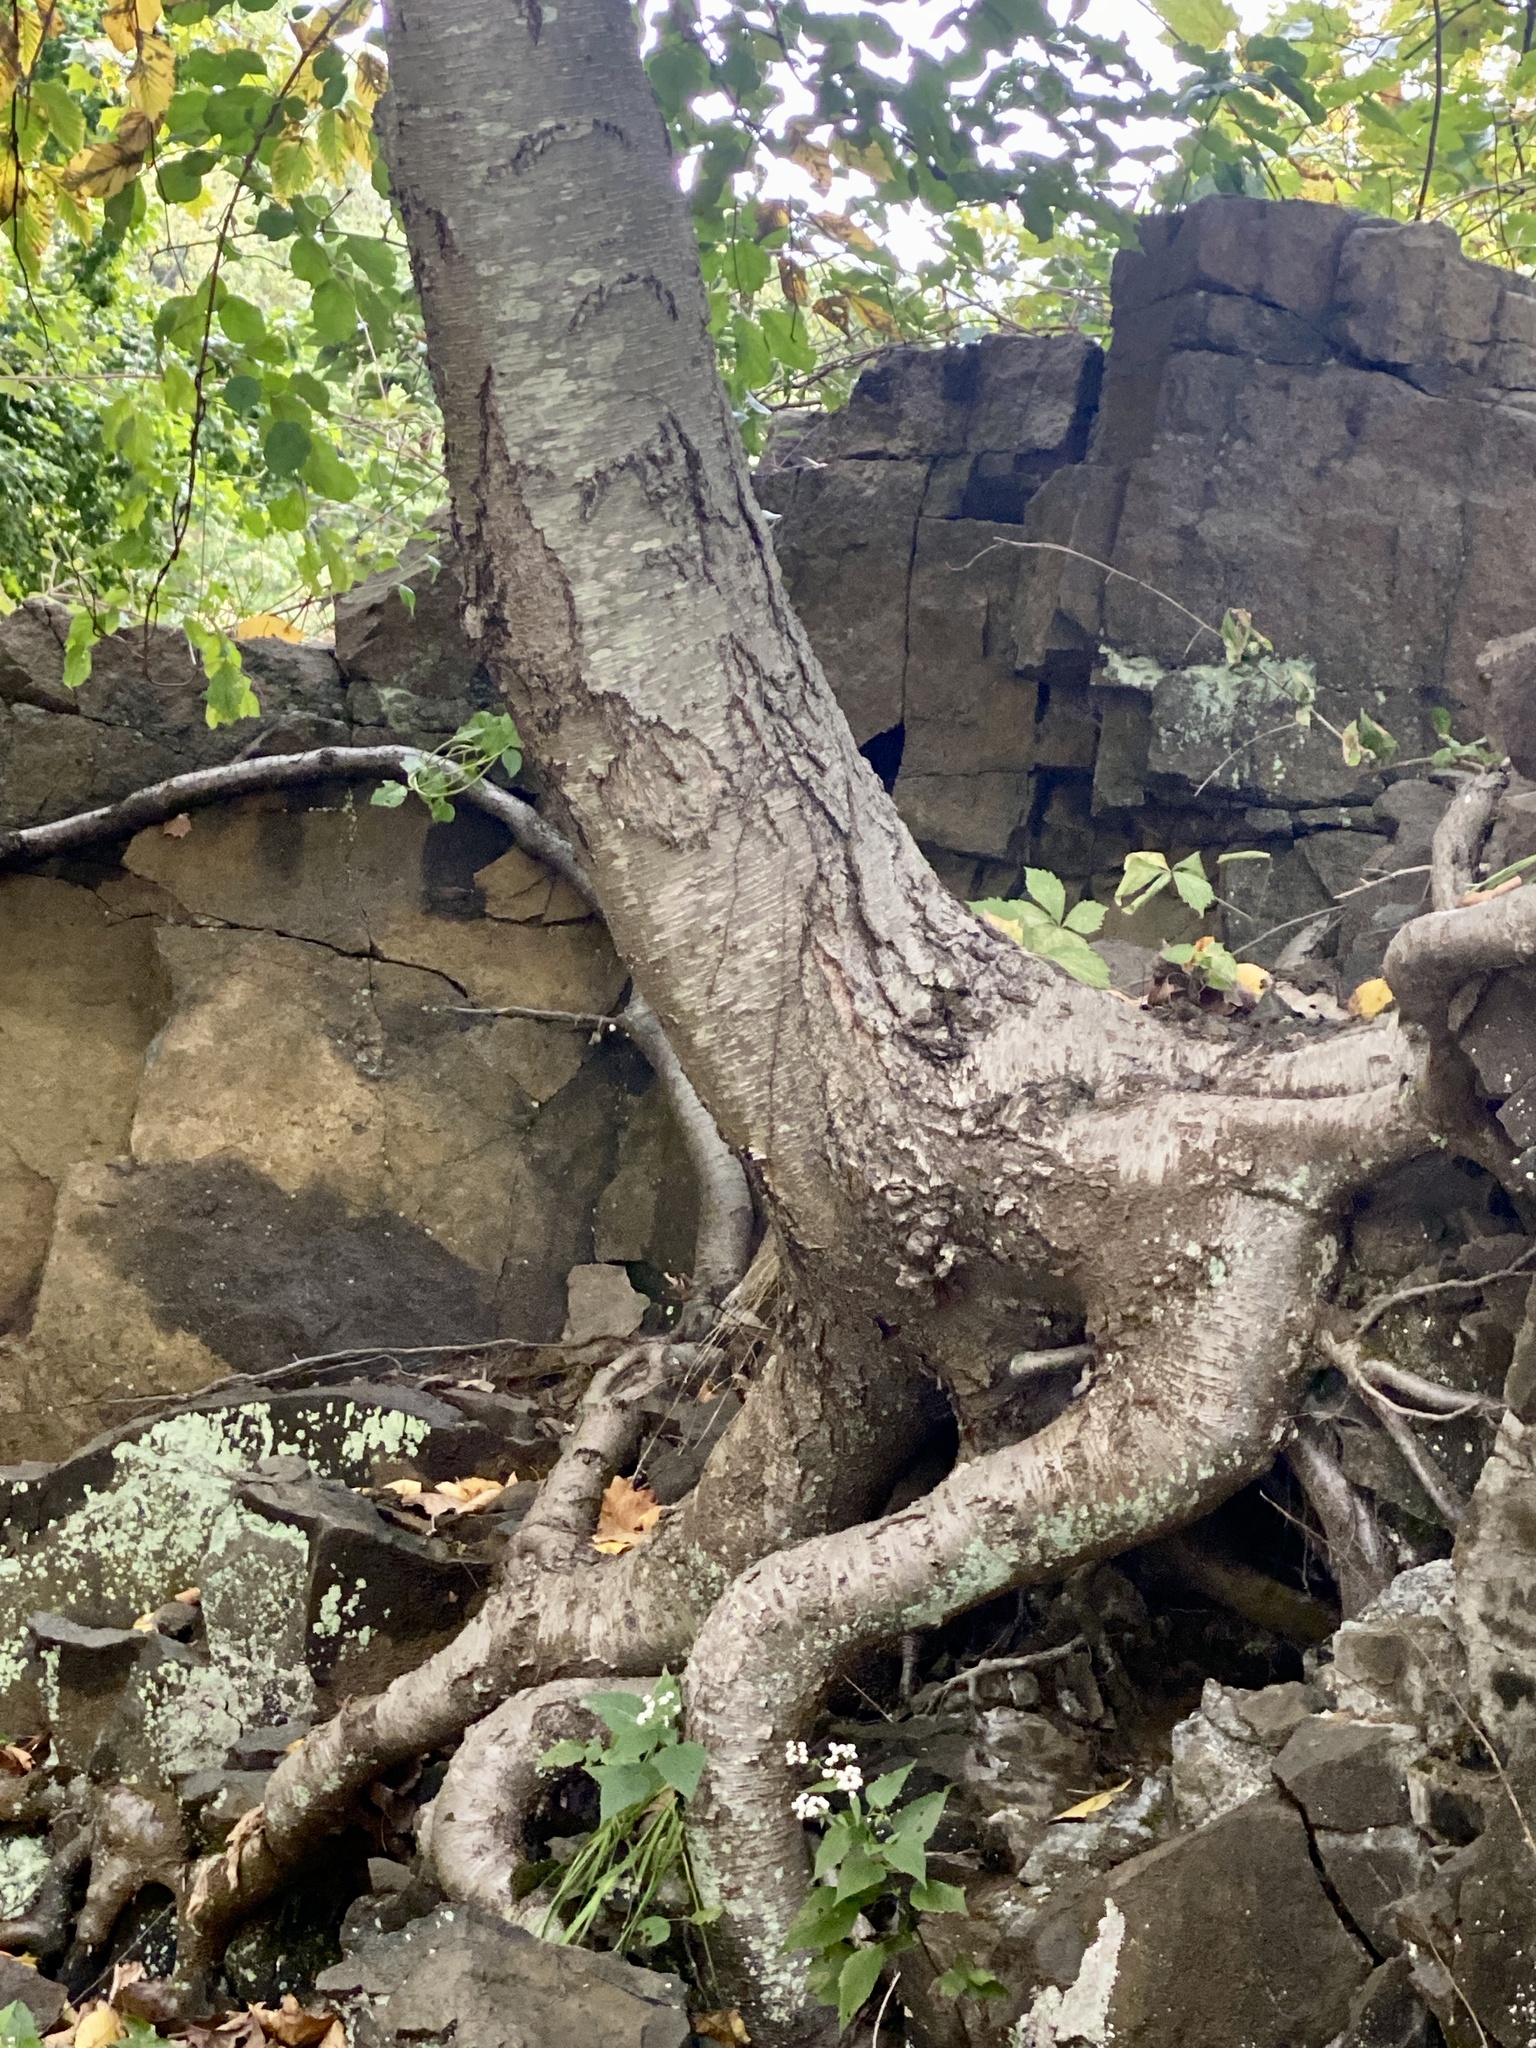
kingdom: Plantae
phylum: Tracheophyta
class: Magnoliopsida
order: Fagales
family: Betulaceae
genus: Betula
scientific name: Betula lenta
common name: Black birch
